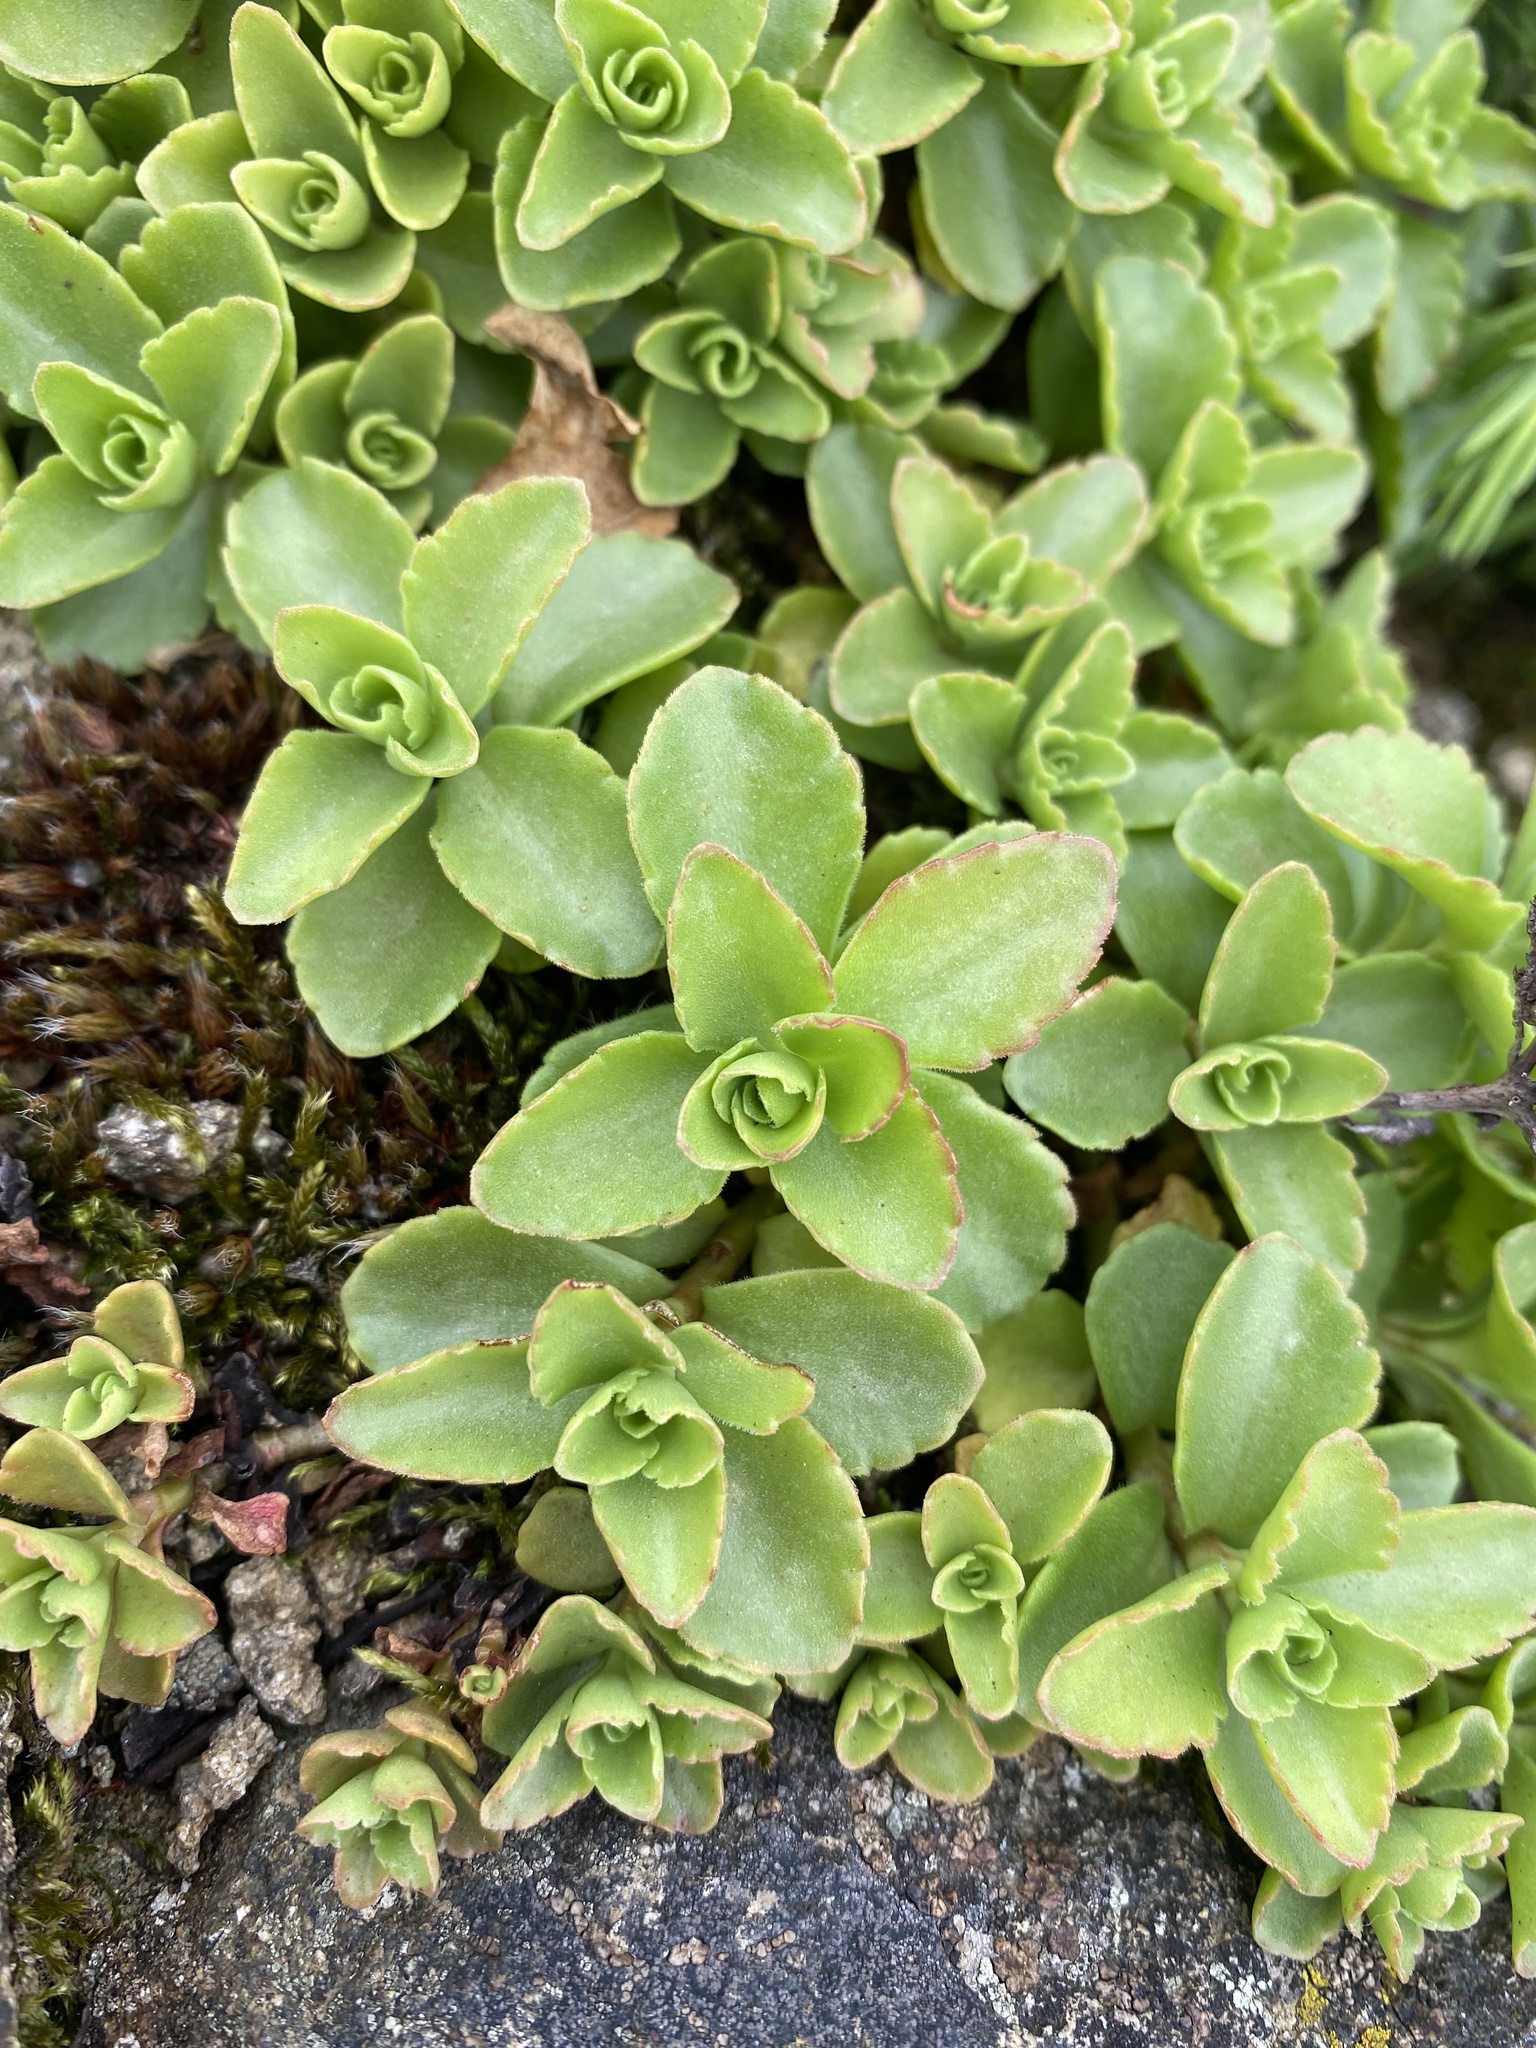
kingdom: Plantae
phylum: Tracheophyta
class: Magnoliopsida
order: Saxifragales
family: Crassulaceae
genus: Phedimus
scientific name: Phedimus spurius
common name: Caucasian stonecrop
